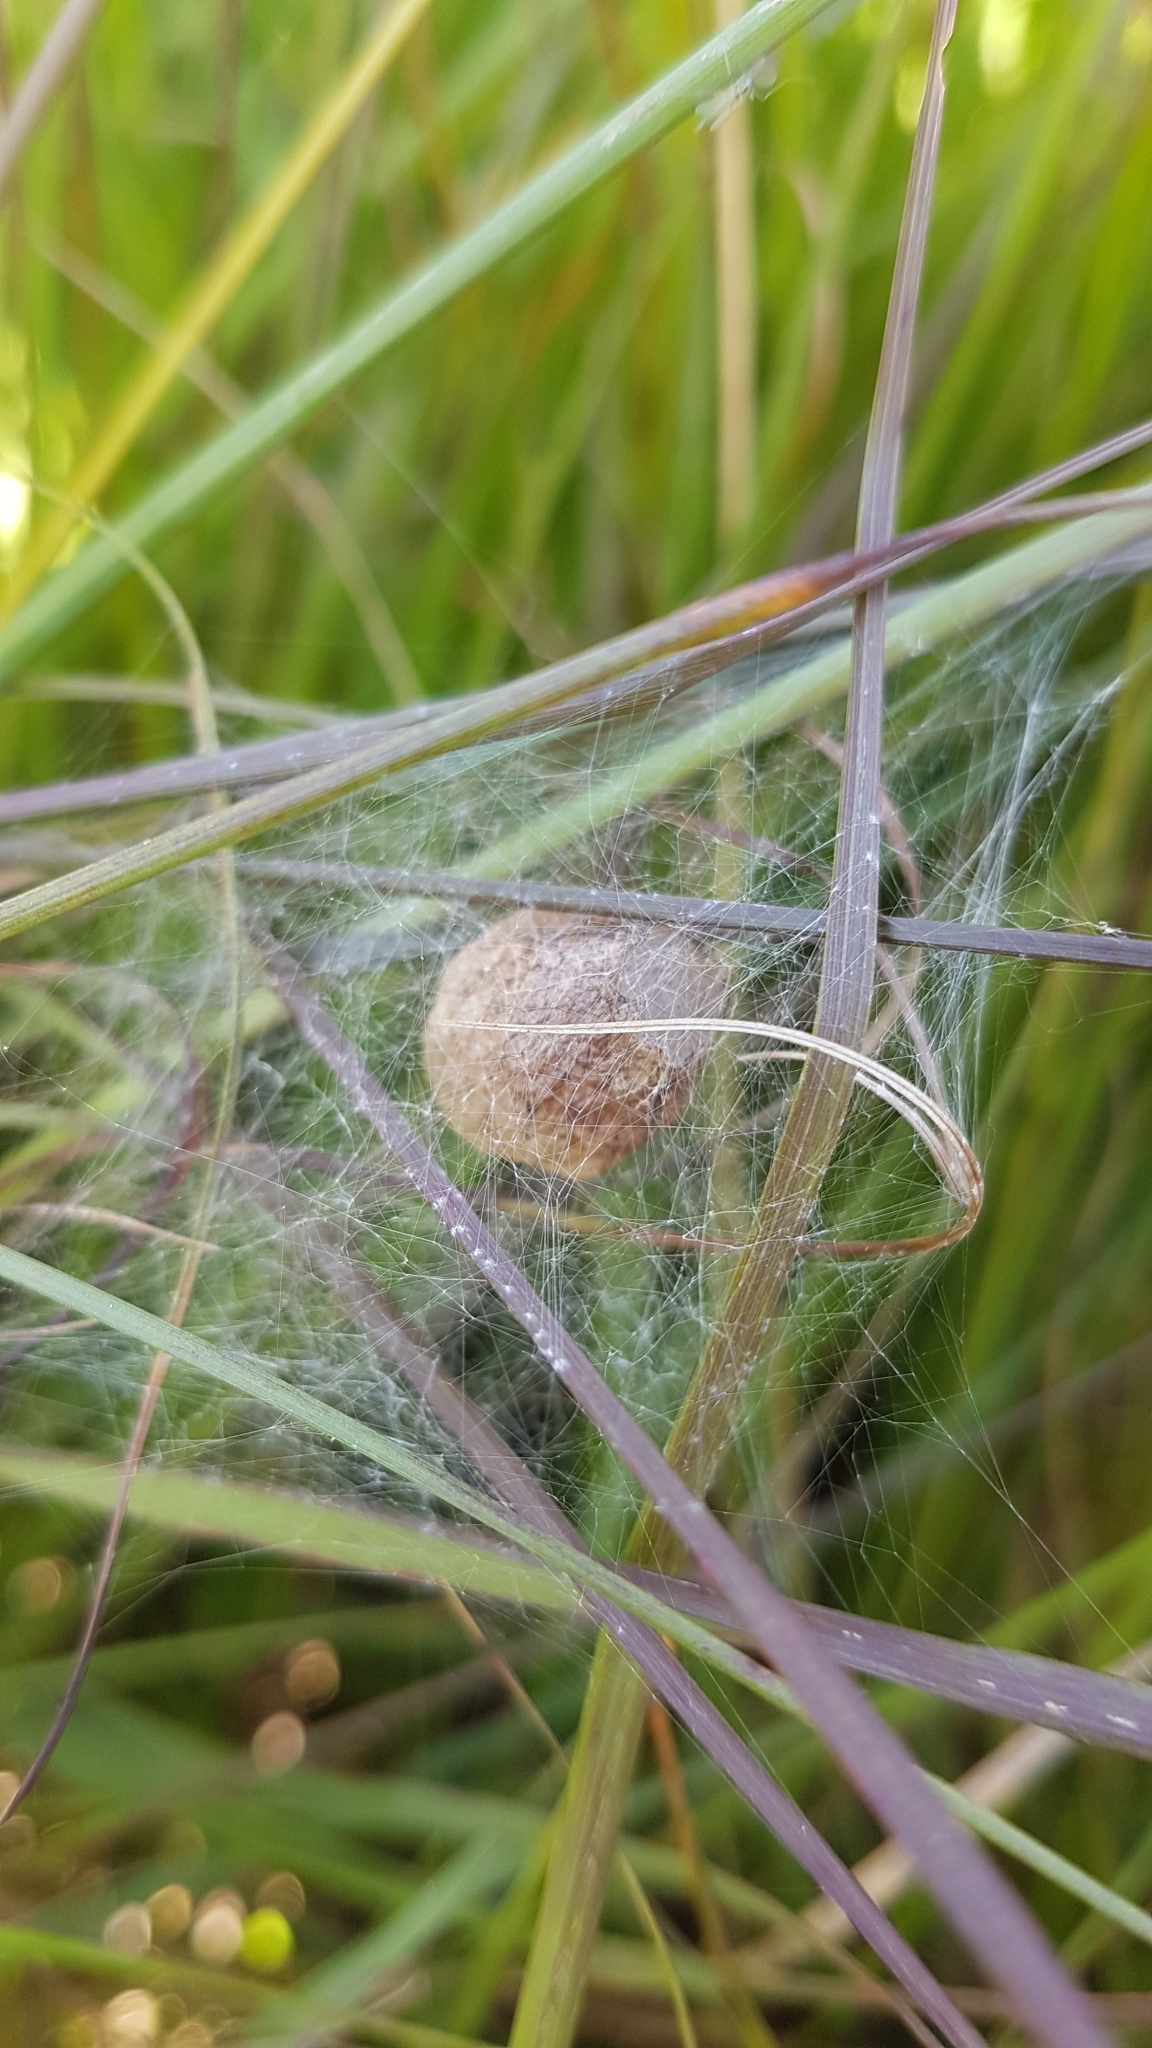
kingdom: Animalia
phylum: Arthropoda
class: Arachnida
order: Araneae
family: Araneidae
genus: Argiope
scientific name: Argiope bruennichi
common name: Wasp spider
